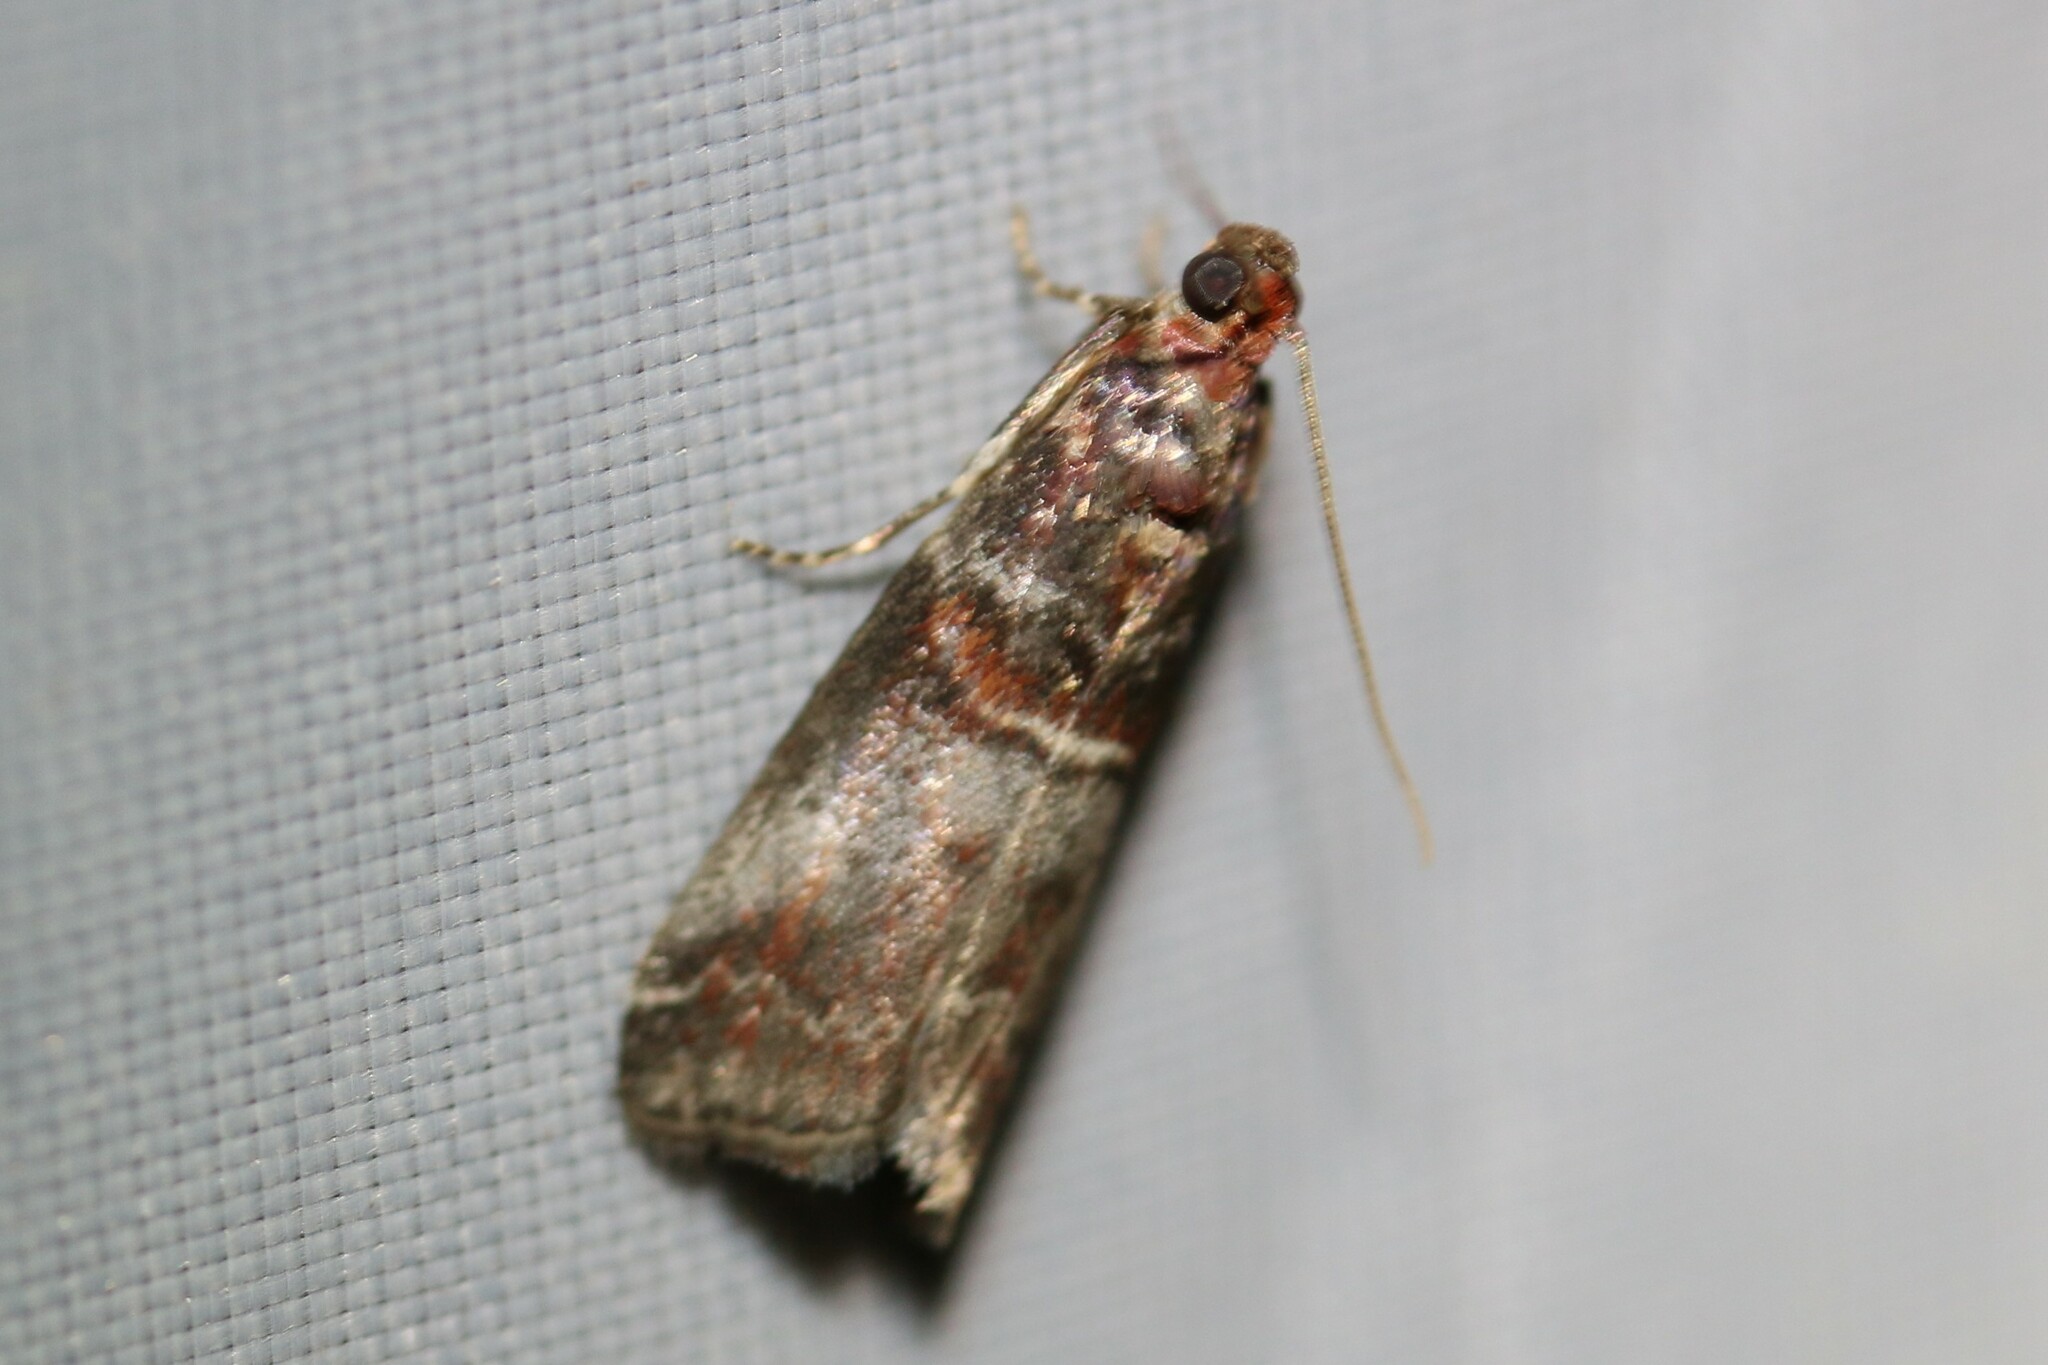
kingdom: Animalia
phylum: Arthropoda
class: Insecta
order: Lepidoptera
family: Pyralidae
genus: Acrobasis
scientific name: Acrobasis advenella
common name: Grey knot-horn
